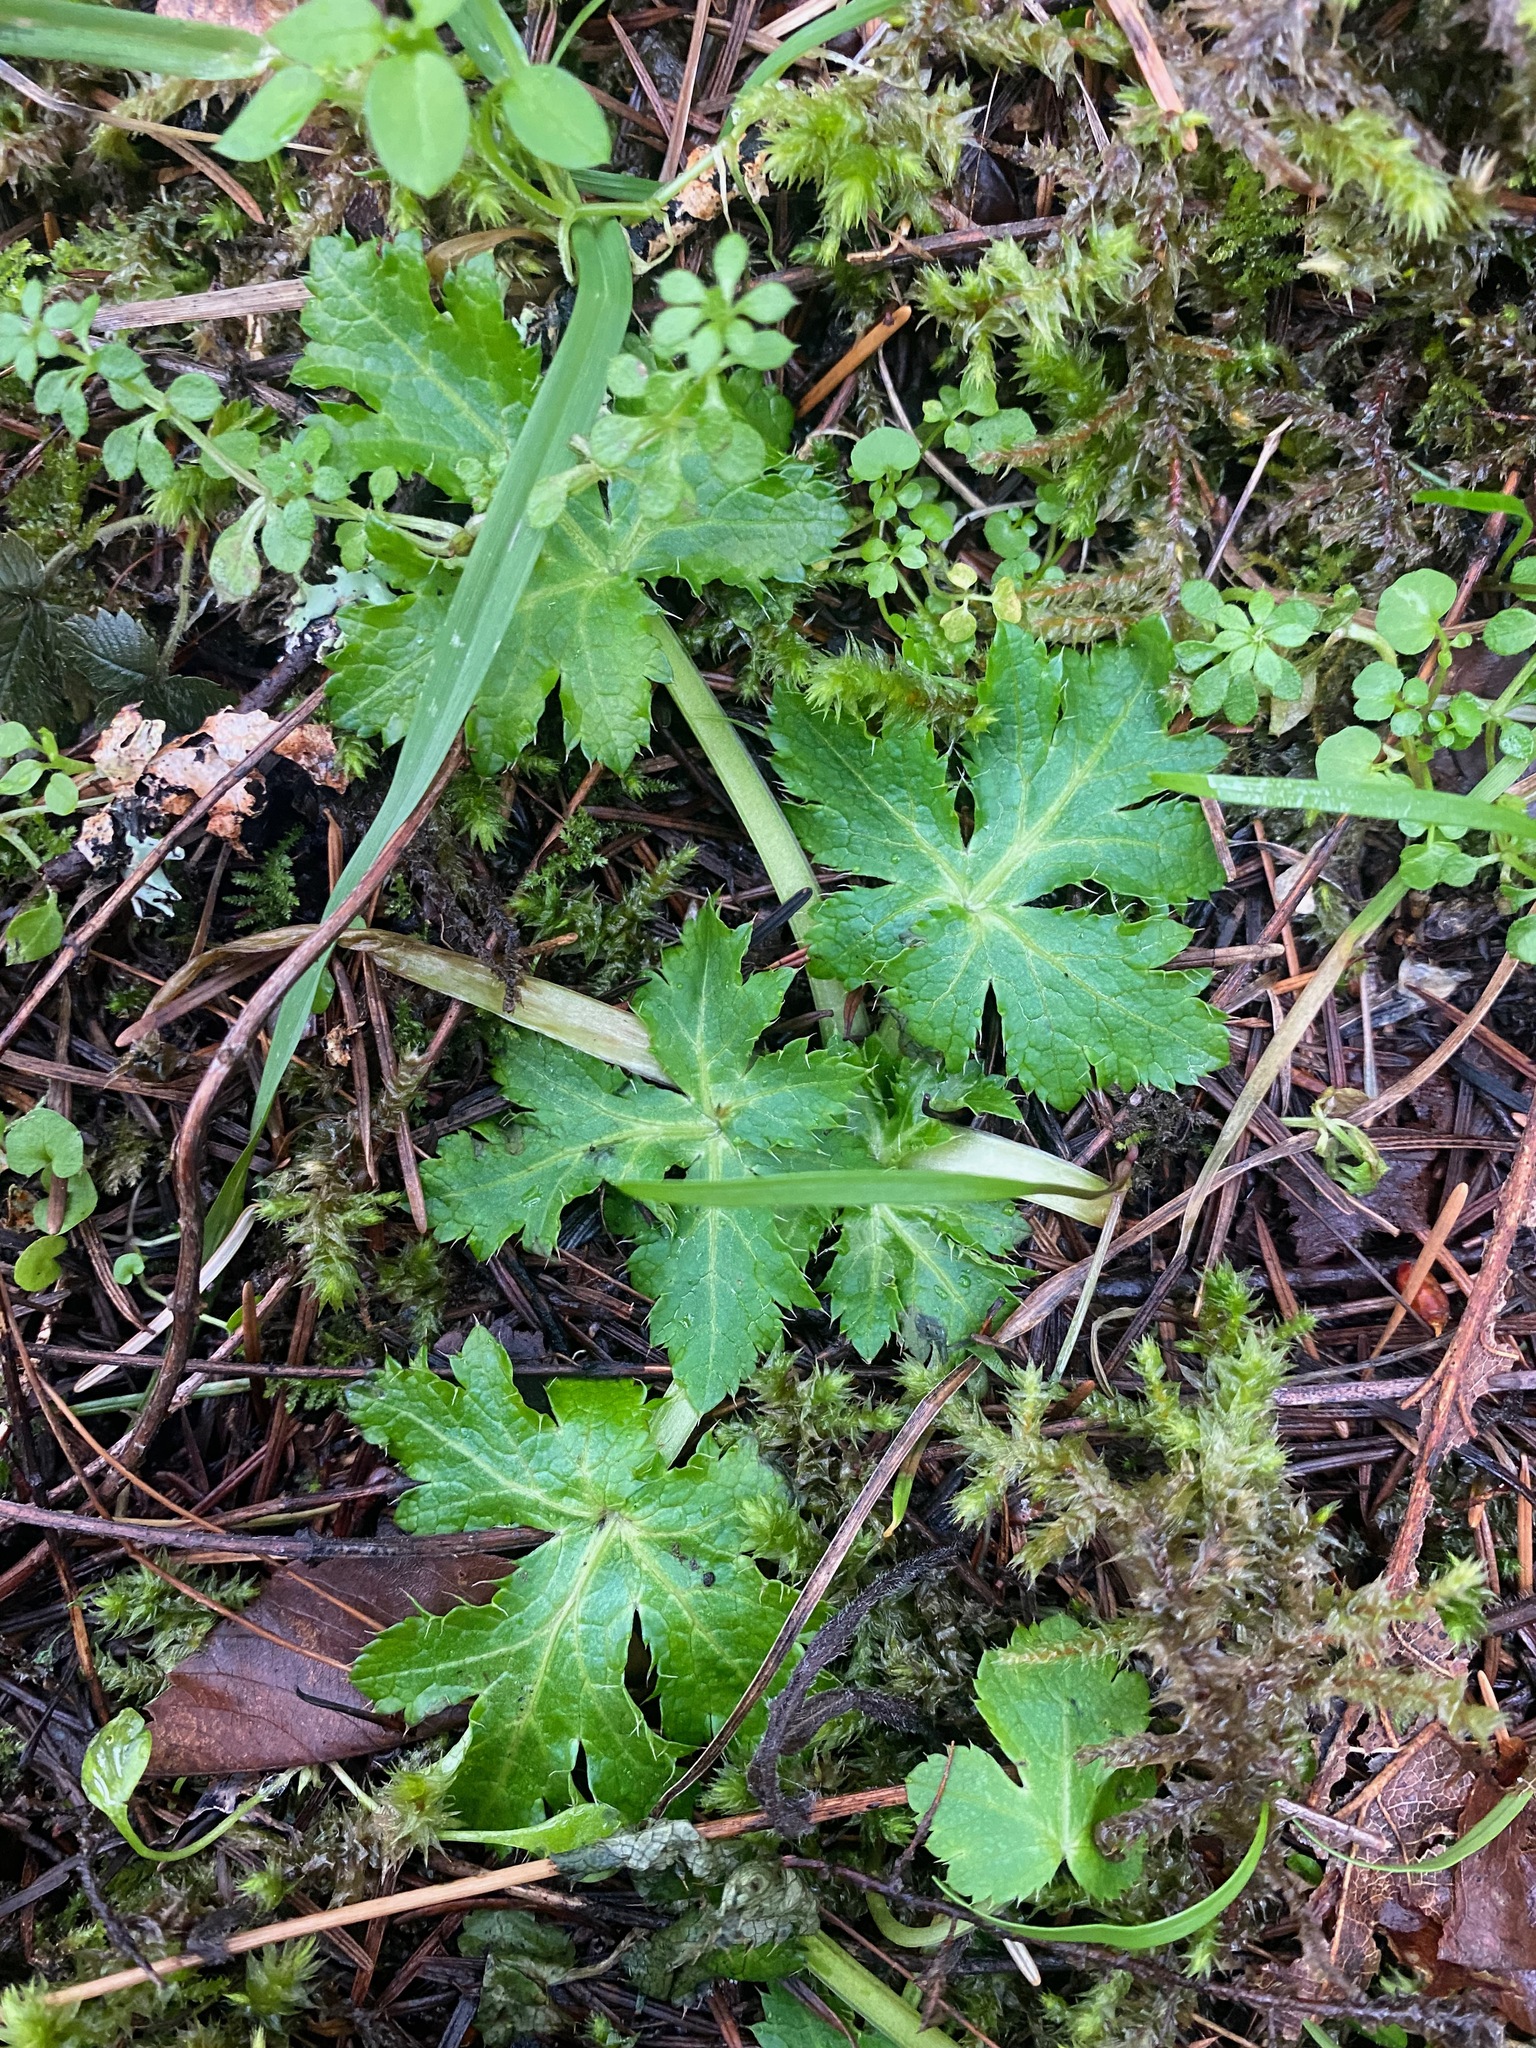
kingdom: Plantae
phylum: Tracheophyta
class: Magnoliopsida
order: Apiales
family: Apiaceae
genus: Sanicula
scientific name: Sanicula crassicaulis
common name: Western snakeroot
